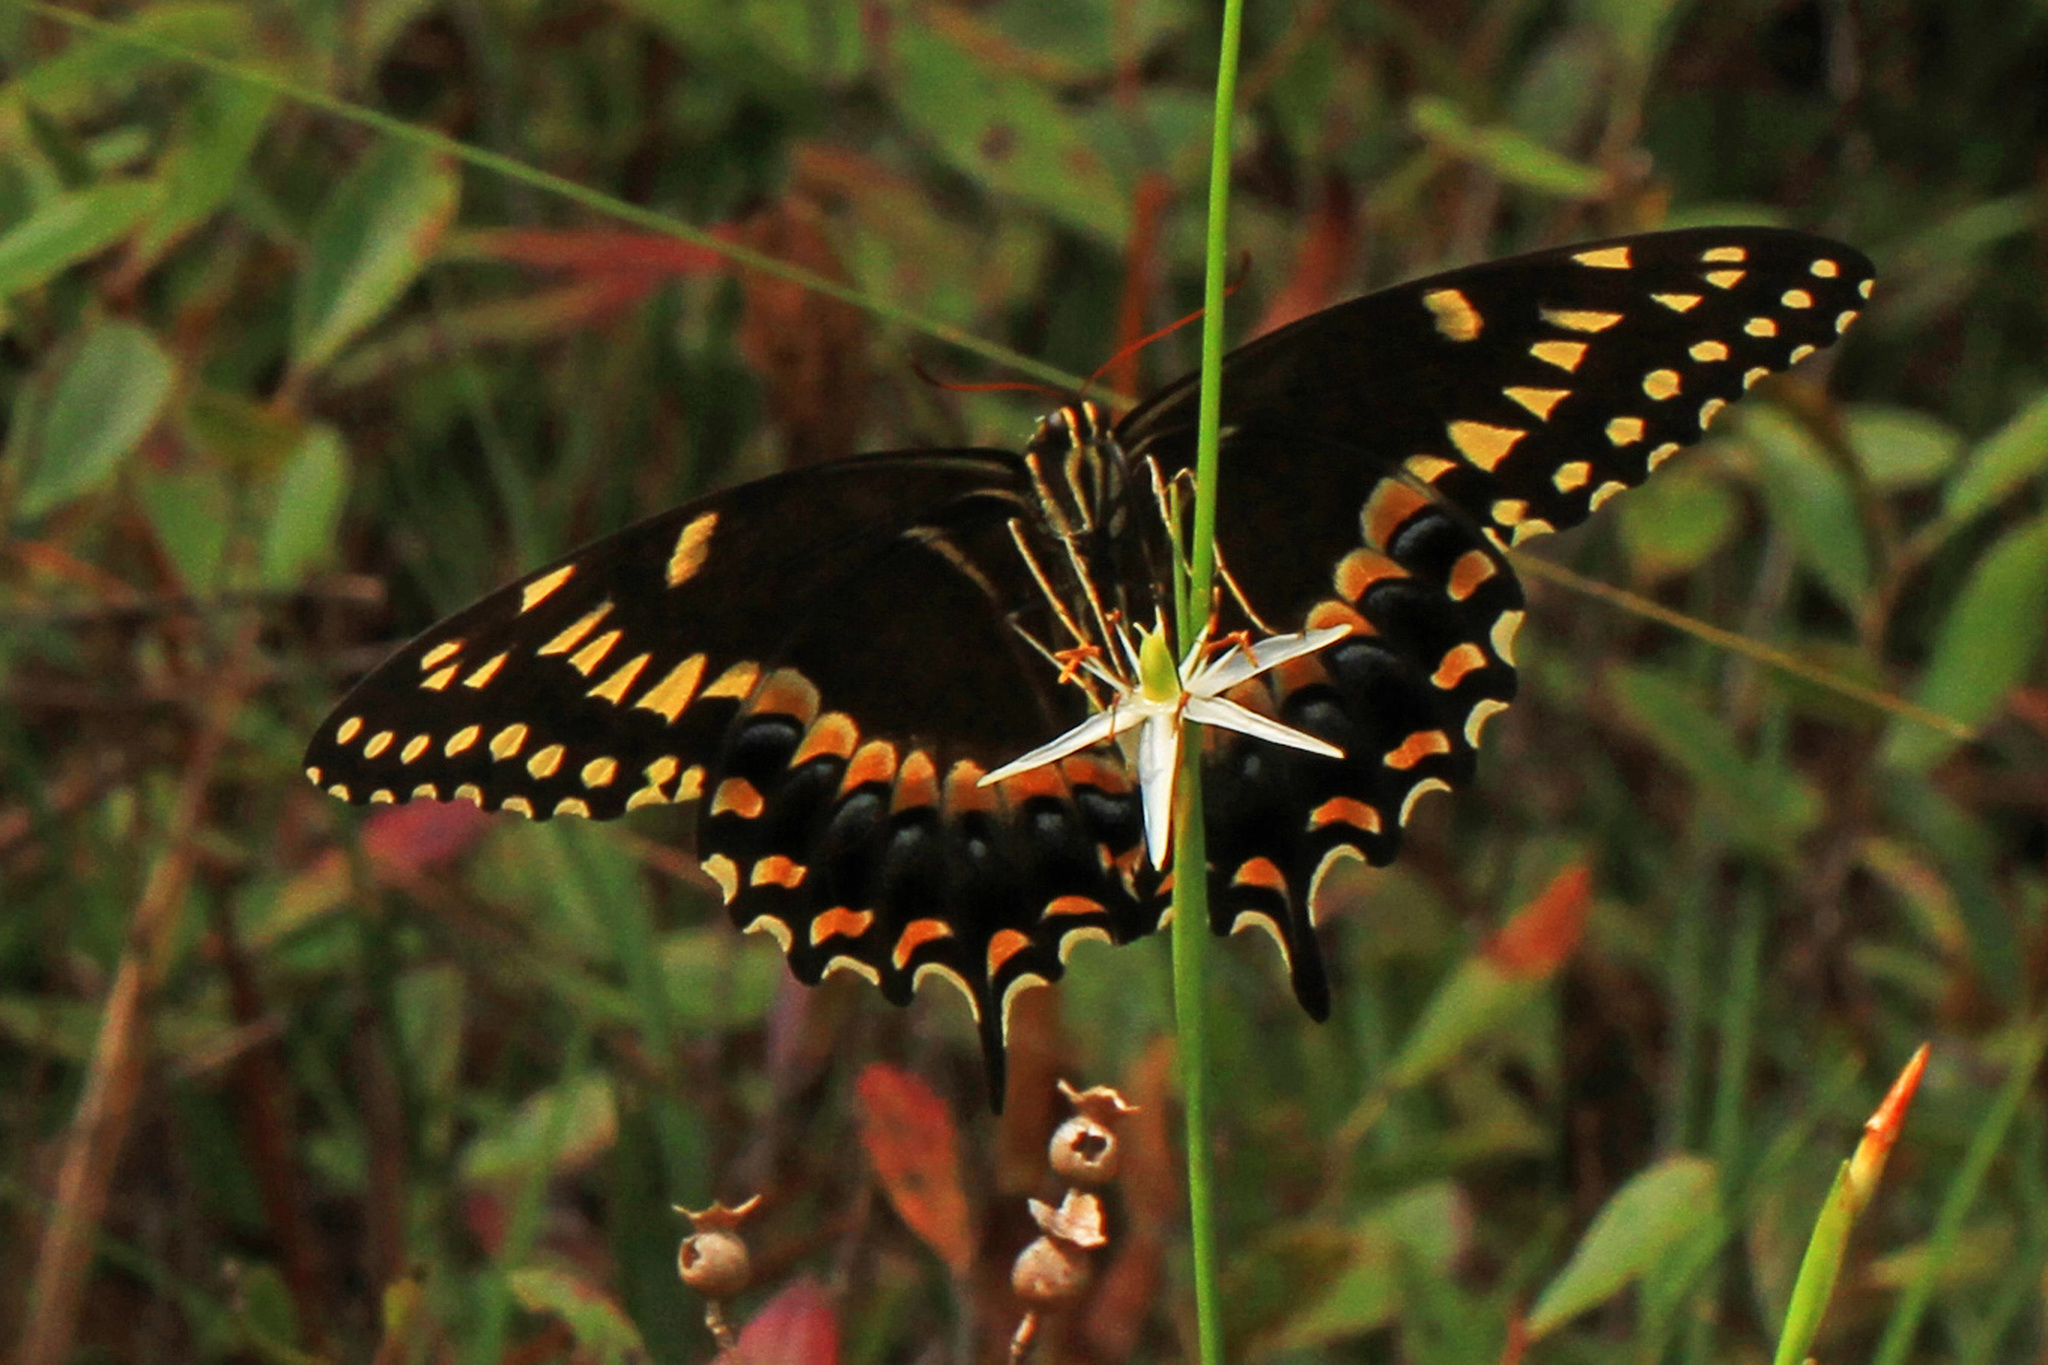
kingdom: Animalia
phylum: Arthropoda
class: Insecta
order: Lepidoptera
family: Papilionidae
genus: Papilio
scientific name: Papilio palamedes
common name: Palamedes swallowtail
